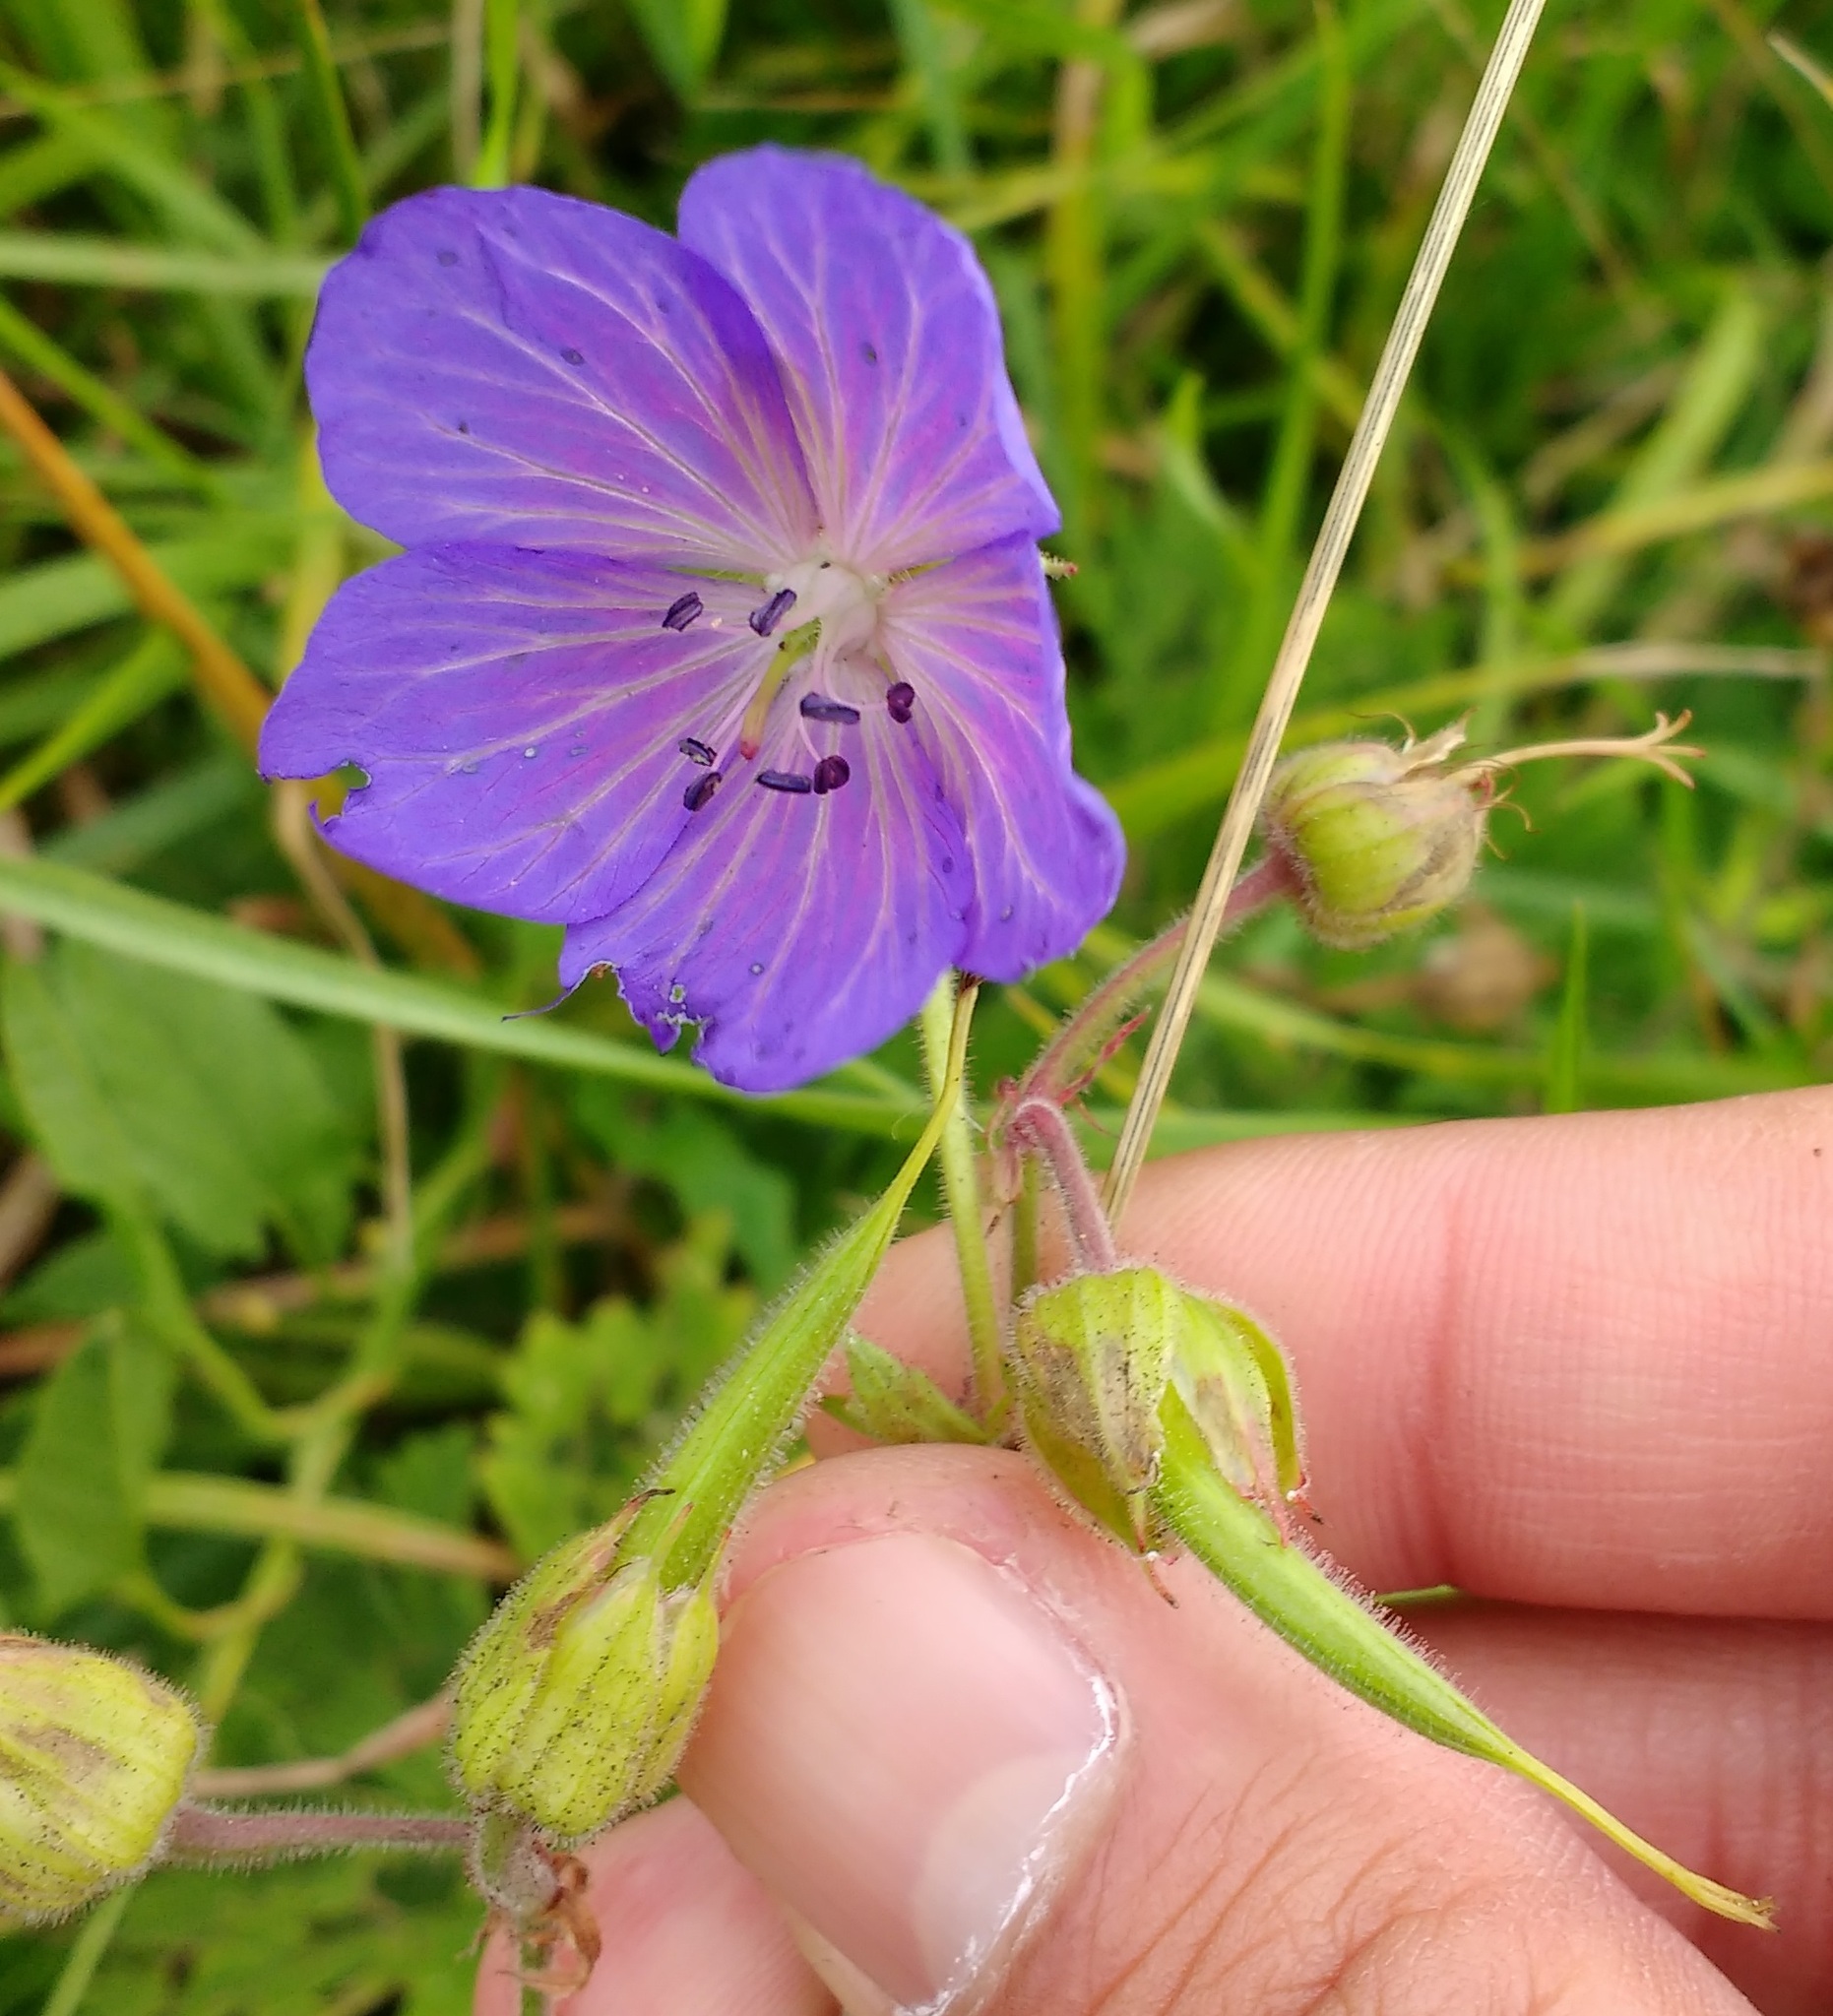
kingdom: Plantae
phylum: Tracheophyta
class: Magnoliopsida
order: Geraniales
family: Geraniaceae
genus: Geranium
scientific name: Geranium pratense
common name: Meadow crane's-bill
